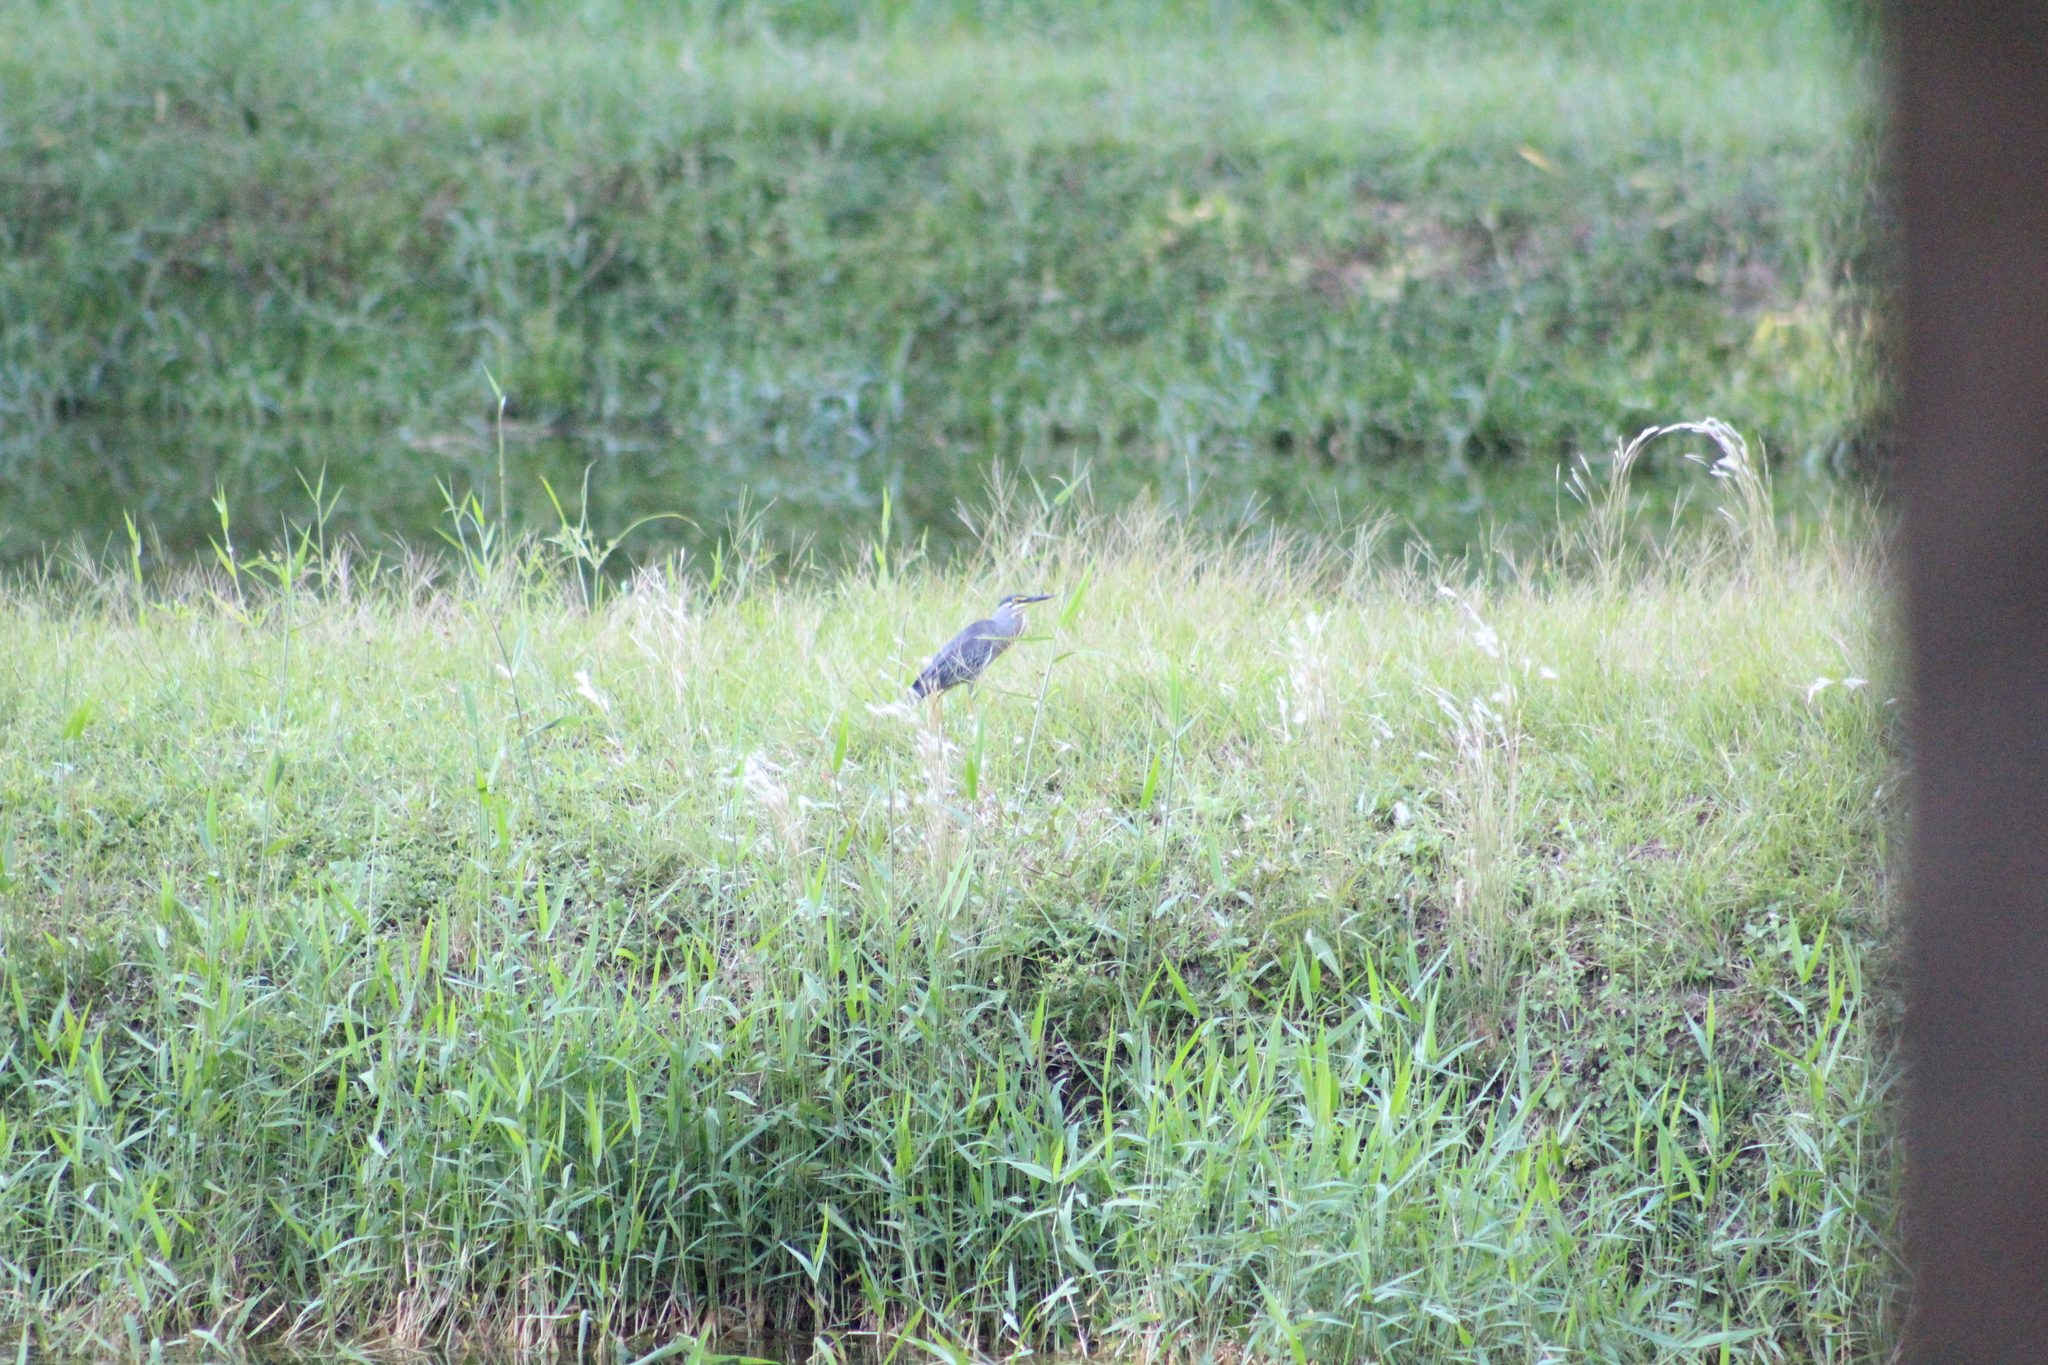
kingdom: Animalia
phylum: Chordata
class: Aves
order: Pelecaniformes
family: Ardeidae
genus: Butorides
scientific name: Butorides striata
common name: Striated heron
